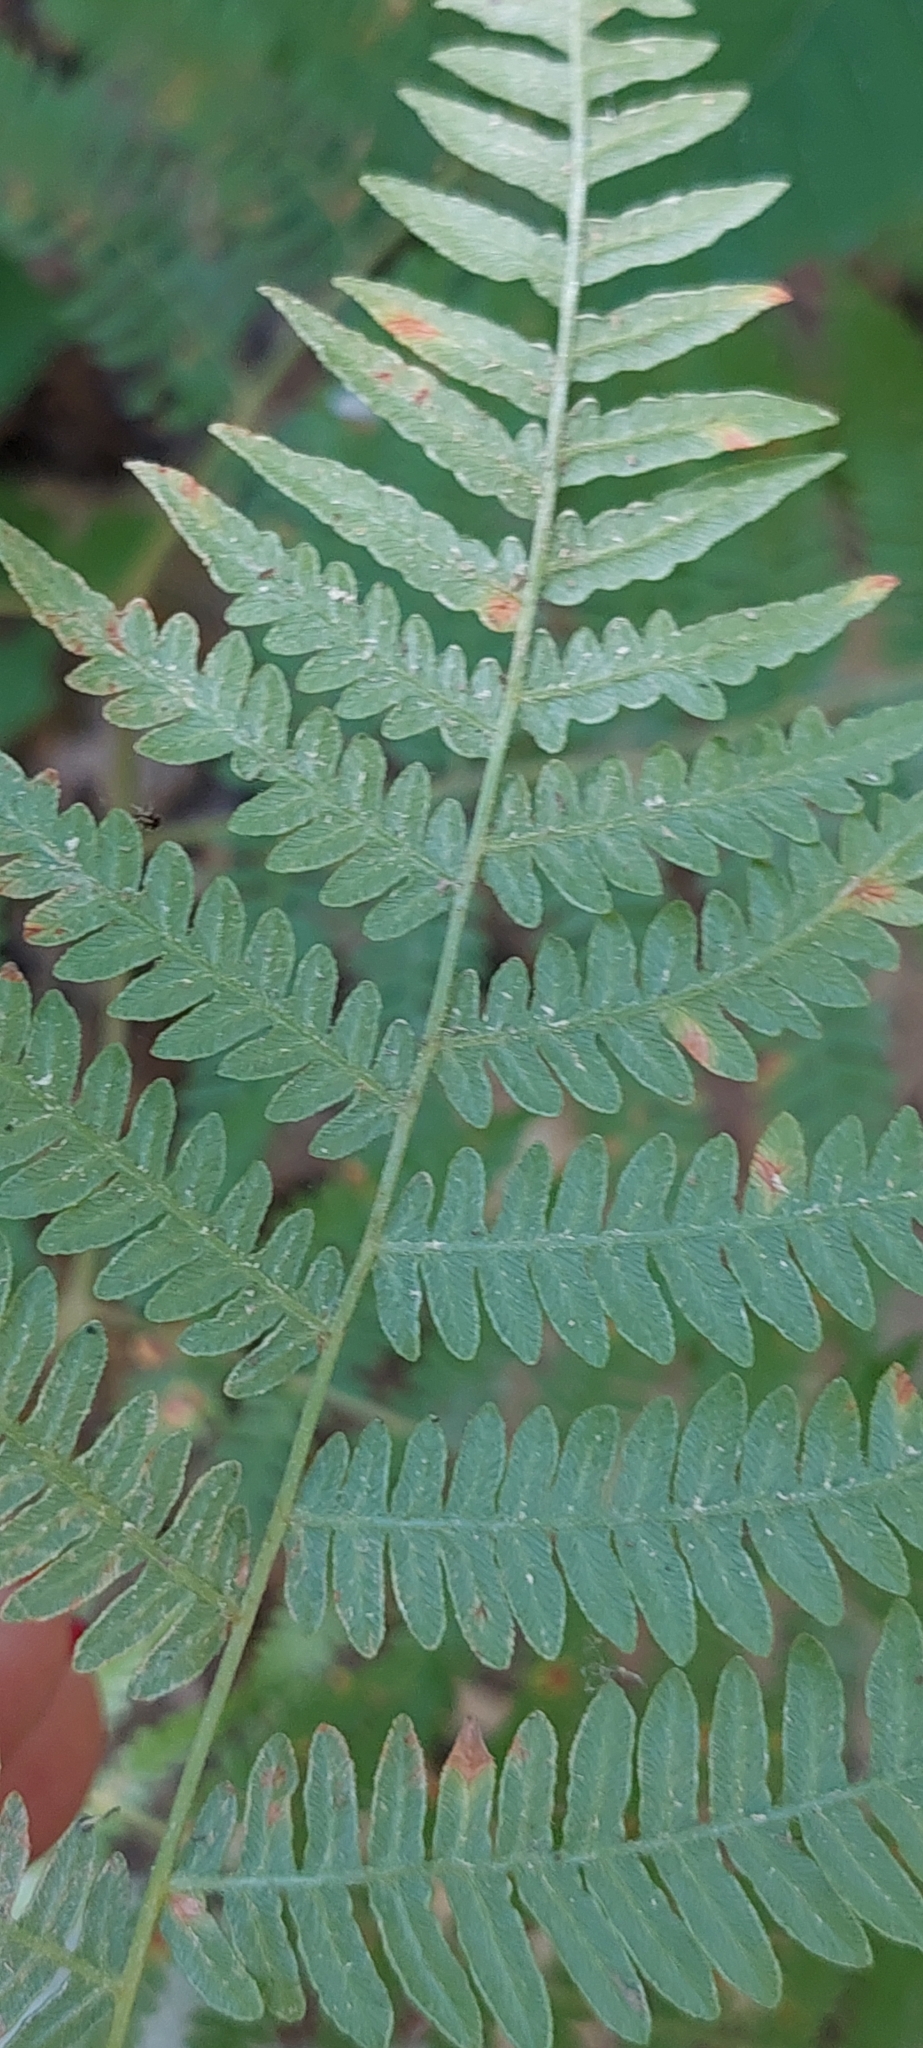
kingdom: Plantae
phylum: Tracheophyta
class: Polypodiopsida
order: Polypodiales
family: Dennstaedtiaceae
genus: Pteridium
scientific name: Pteridium tauricum
